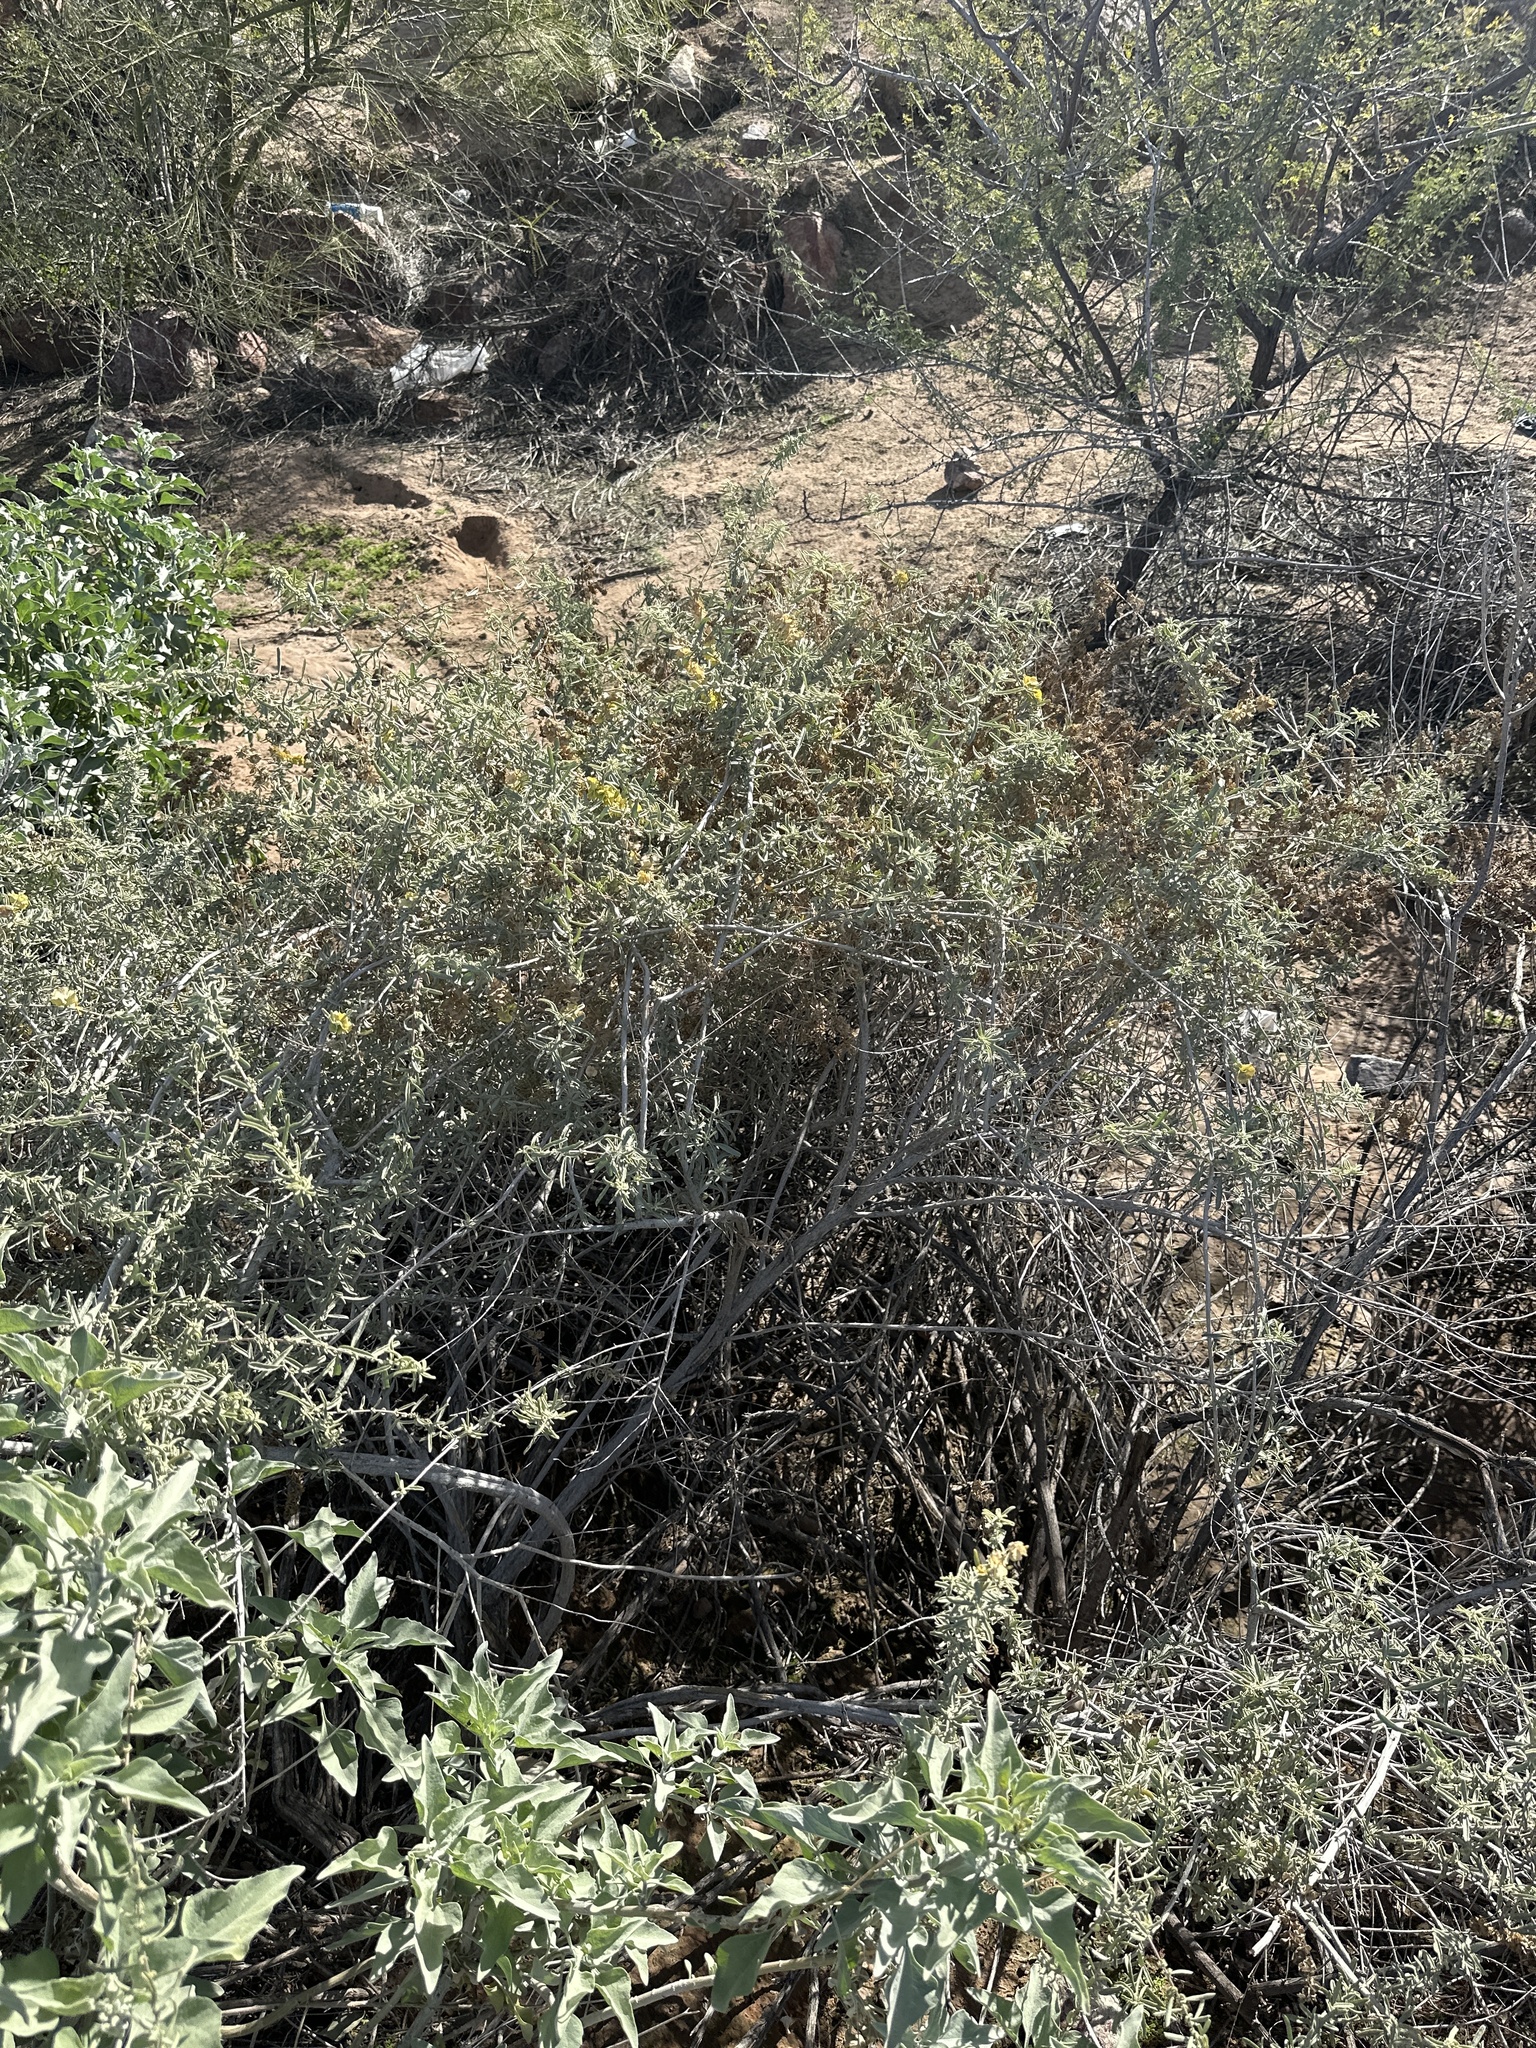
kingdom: Plantae
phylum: Tracheophyta
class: Magnoliopsida
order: Caryophyllales
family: Amaranthaceae
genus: Atriplex
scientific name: Atriplex canescens
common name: Four-wing saltbush
